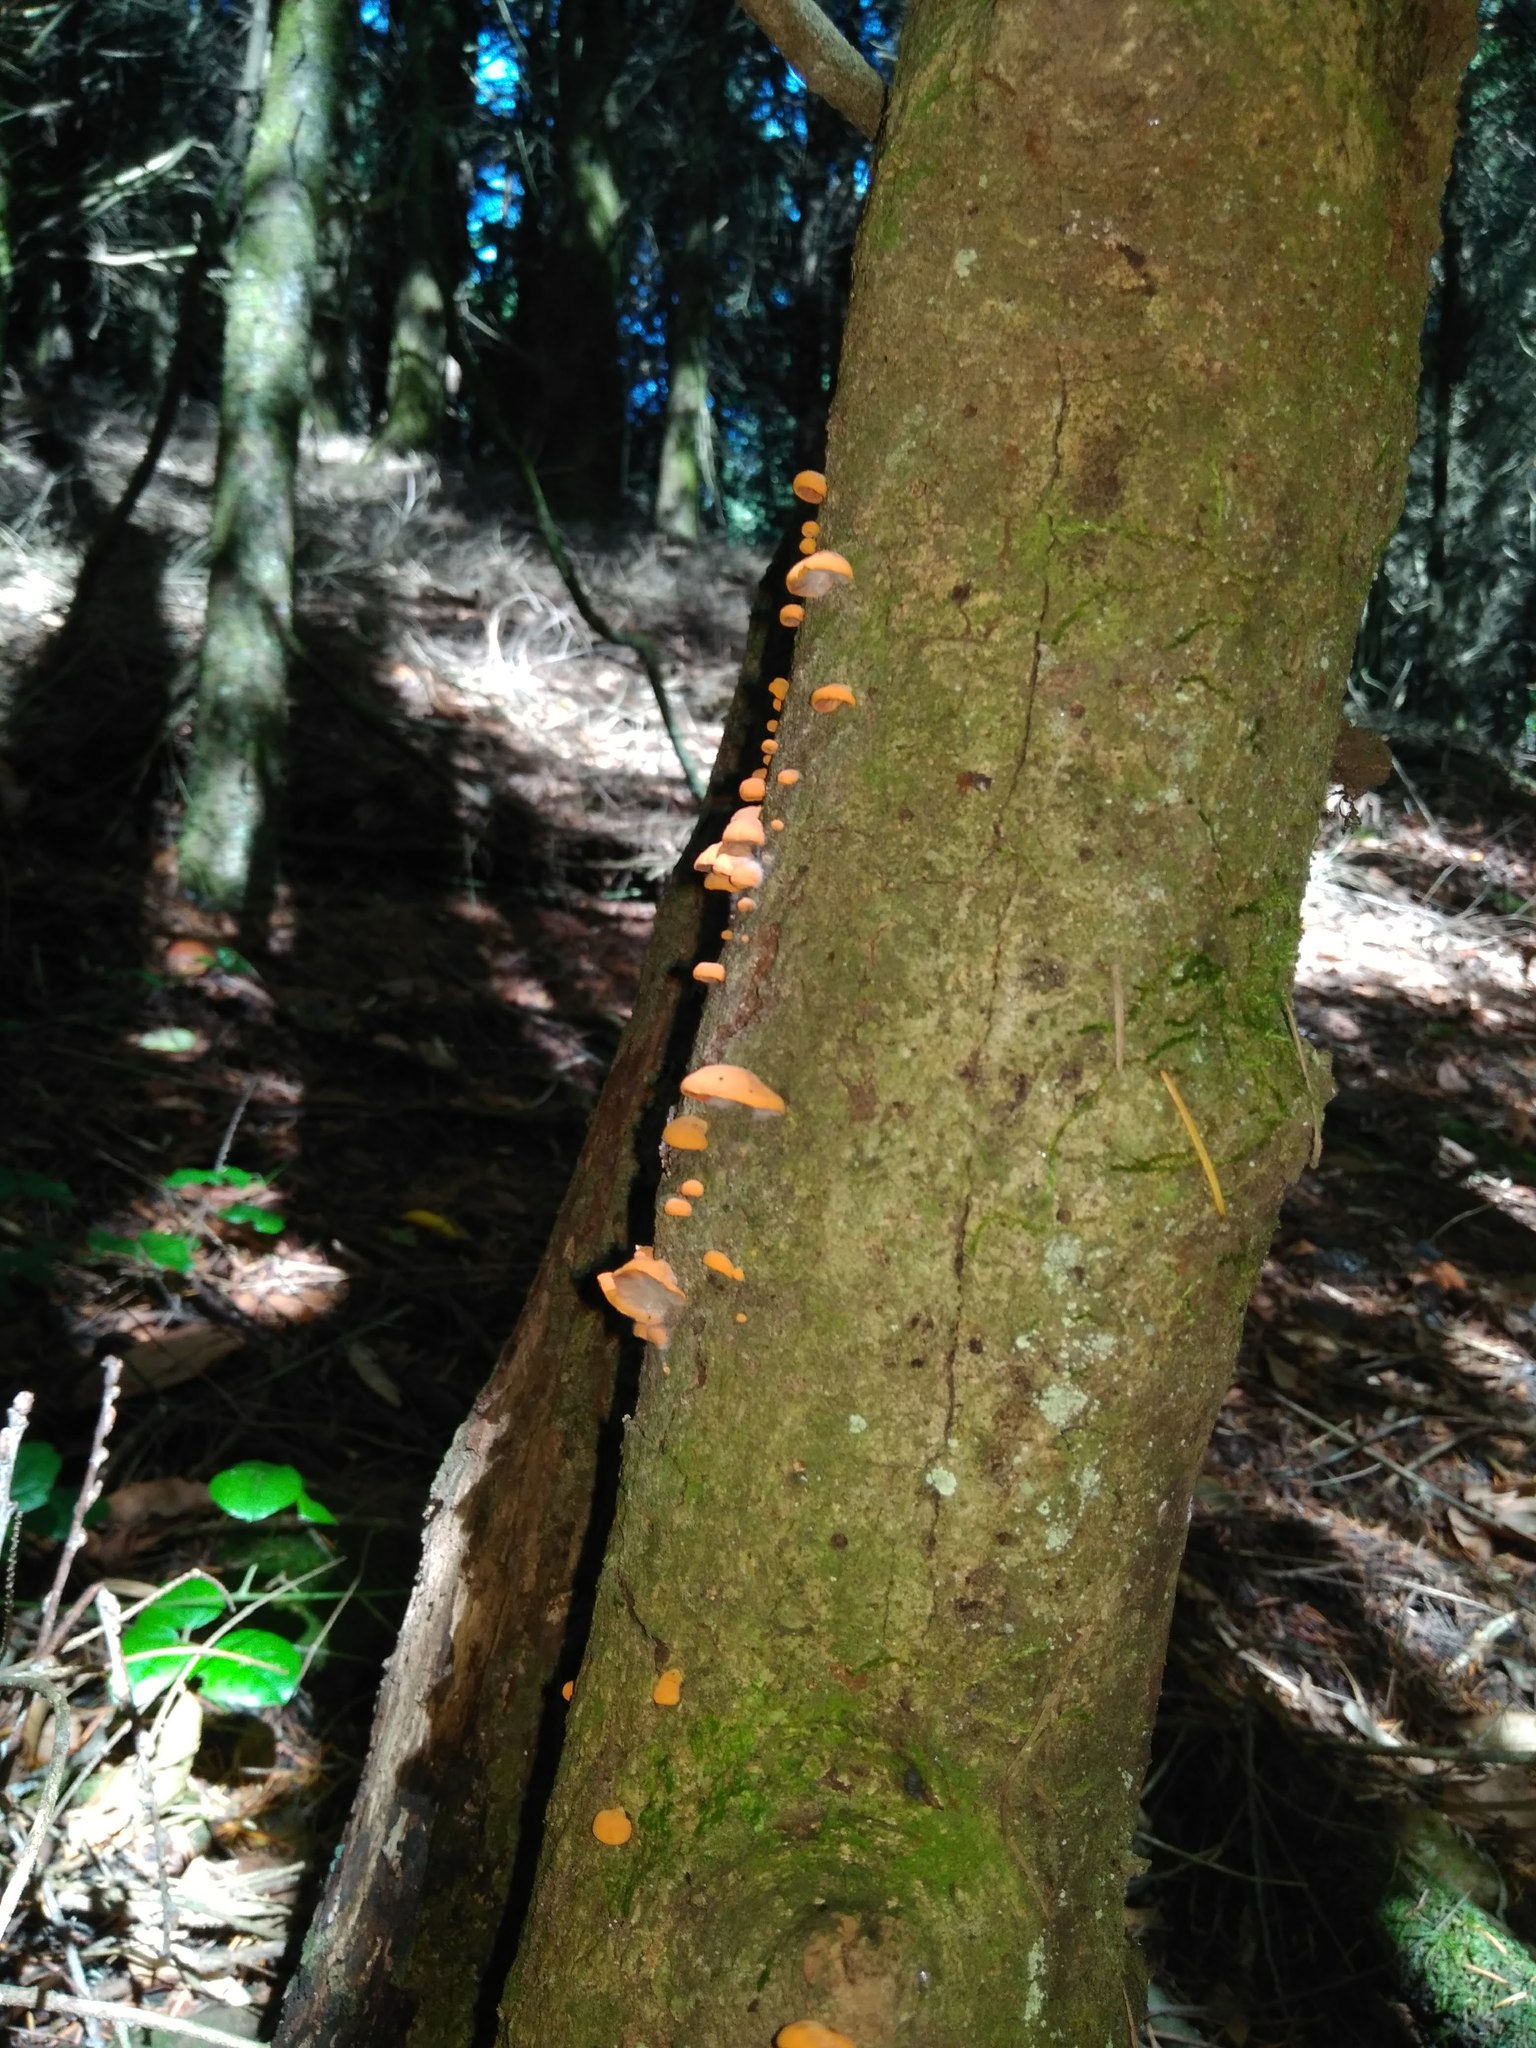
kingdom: Fungi
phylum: Basidiomycota
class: Agaricomycetes
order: Agaricales
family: Omphalotaceae
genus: Anthracophyllum
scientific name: Anthracophyllum discolor
